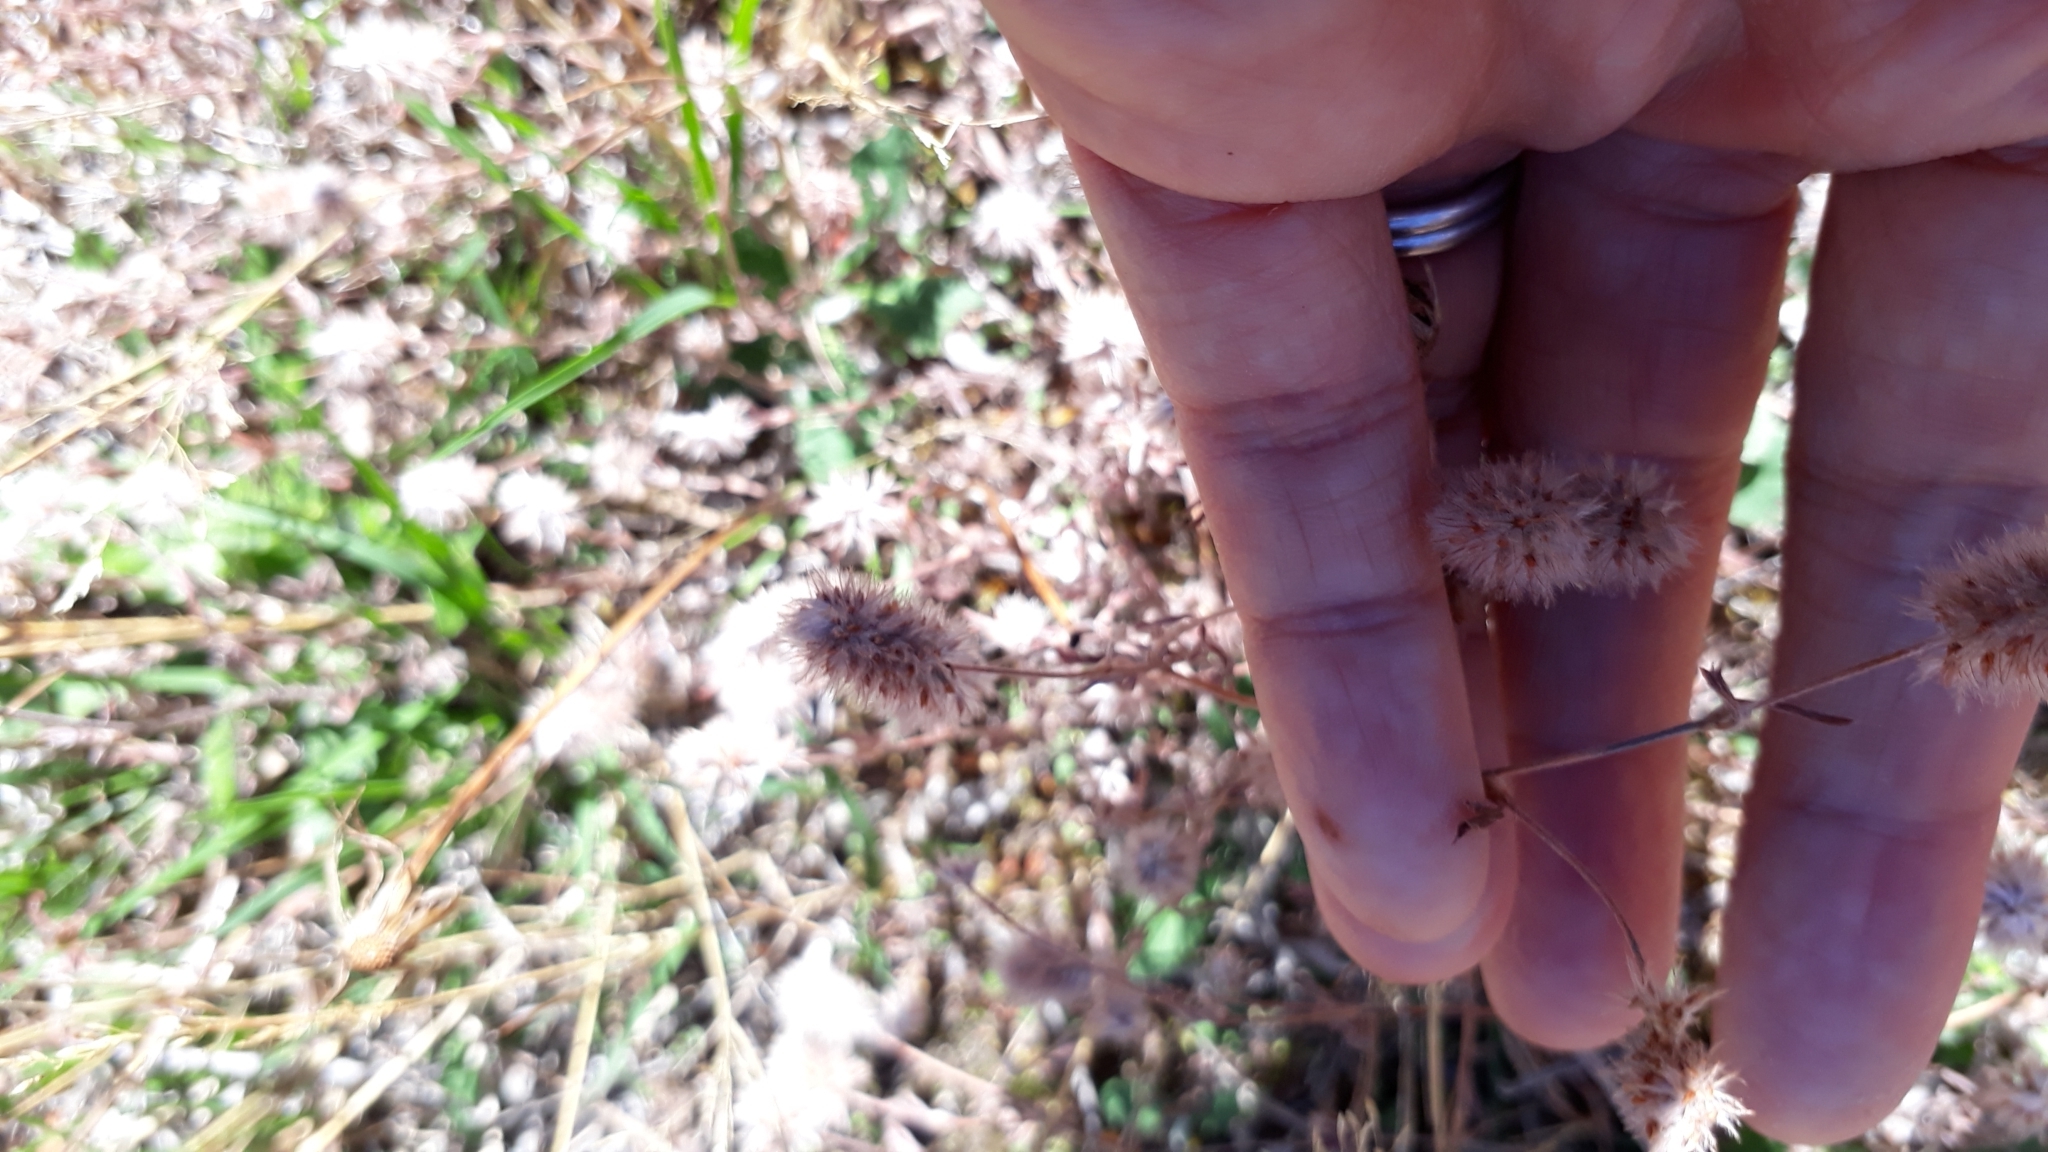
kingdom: Plantae
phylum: Tracheophyta
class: Magnoliopsida
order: Fabales
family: Fabaceae
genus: Trifolium
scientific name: Trifolium arvense
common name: Hare's-foot clover
